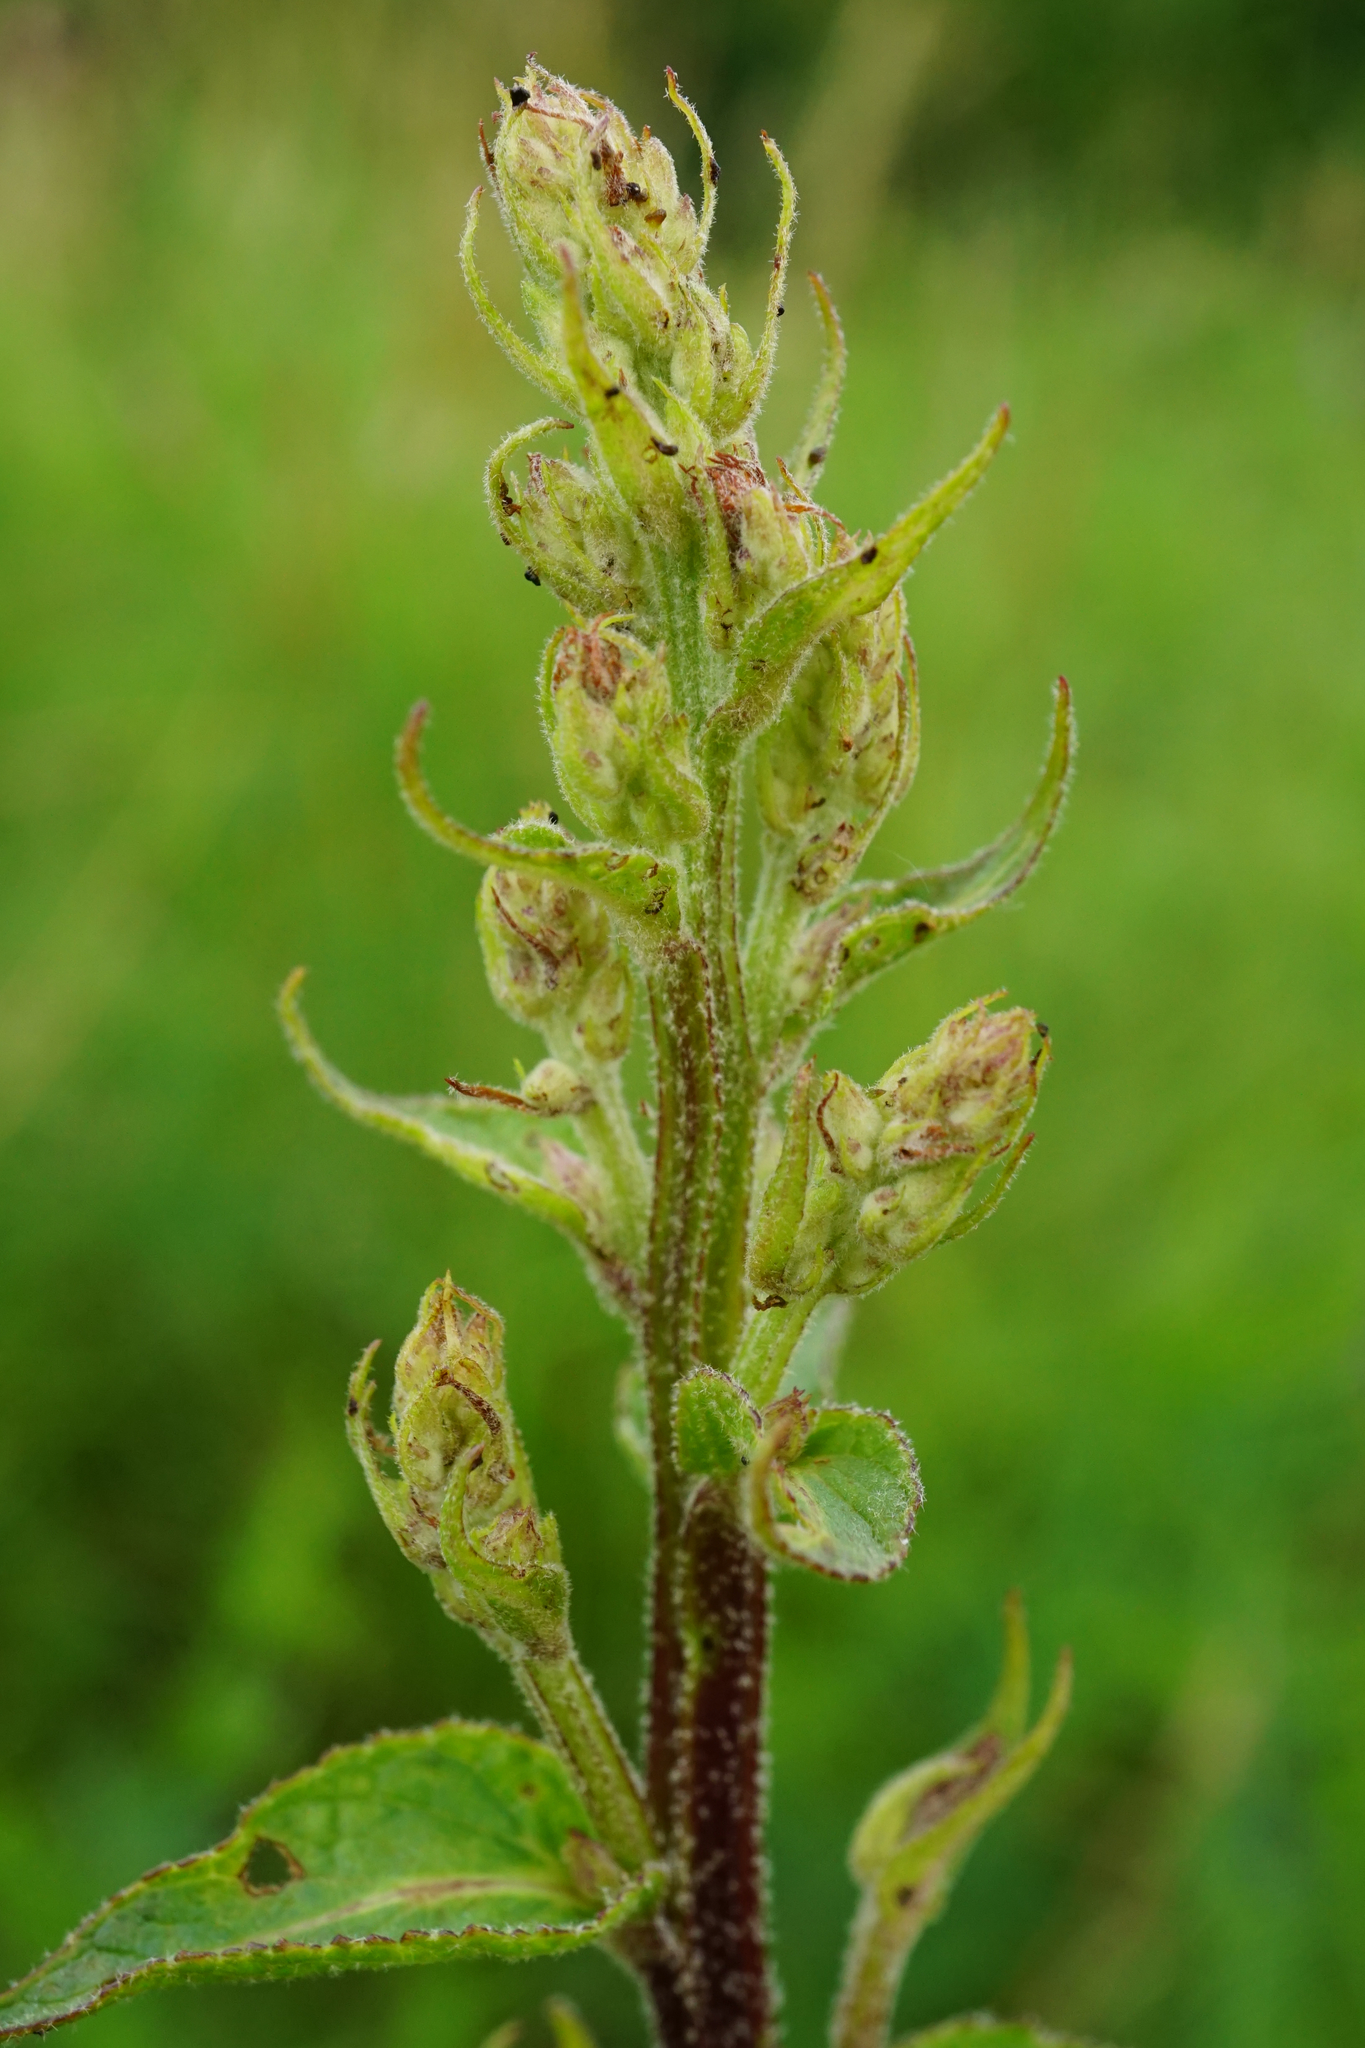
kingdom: Plantae
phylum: Tracheophyta
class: Magnoliopsida
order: Lamiales
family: Scrophulariaceae
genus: Verbascum
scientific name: Verbascum chaixii
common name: Nettle-leaved mullein
